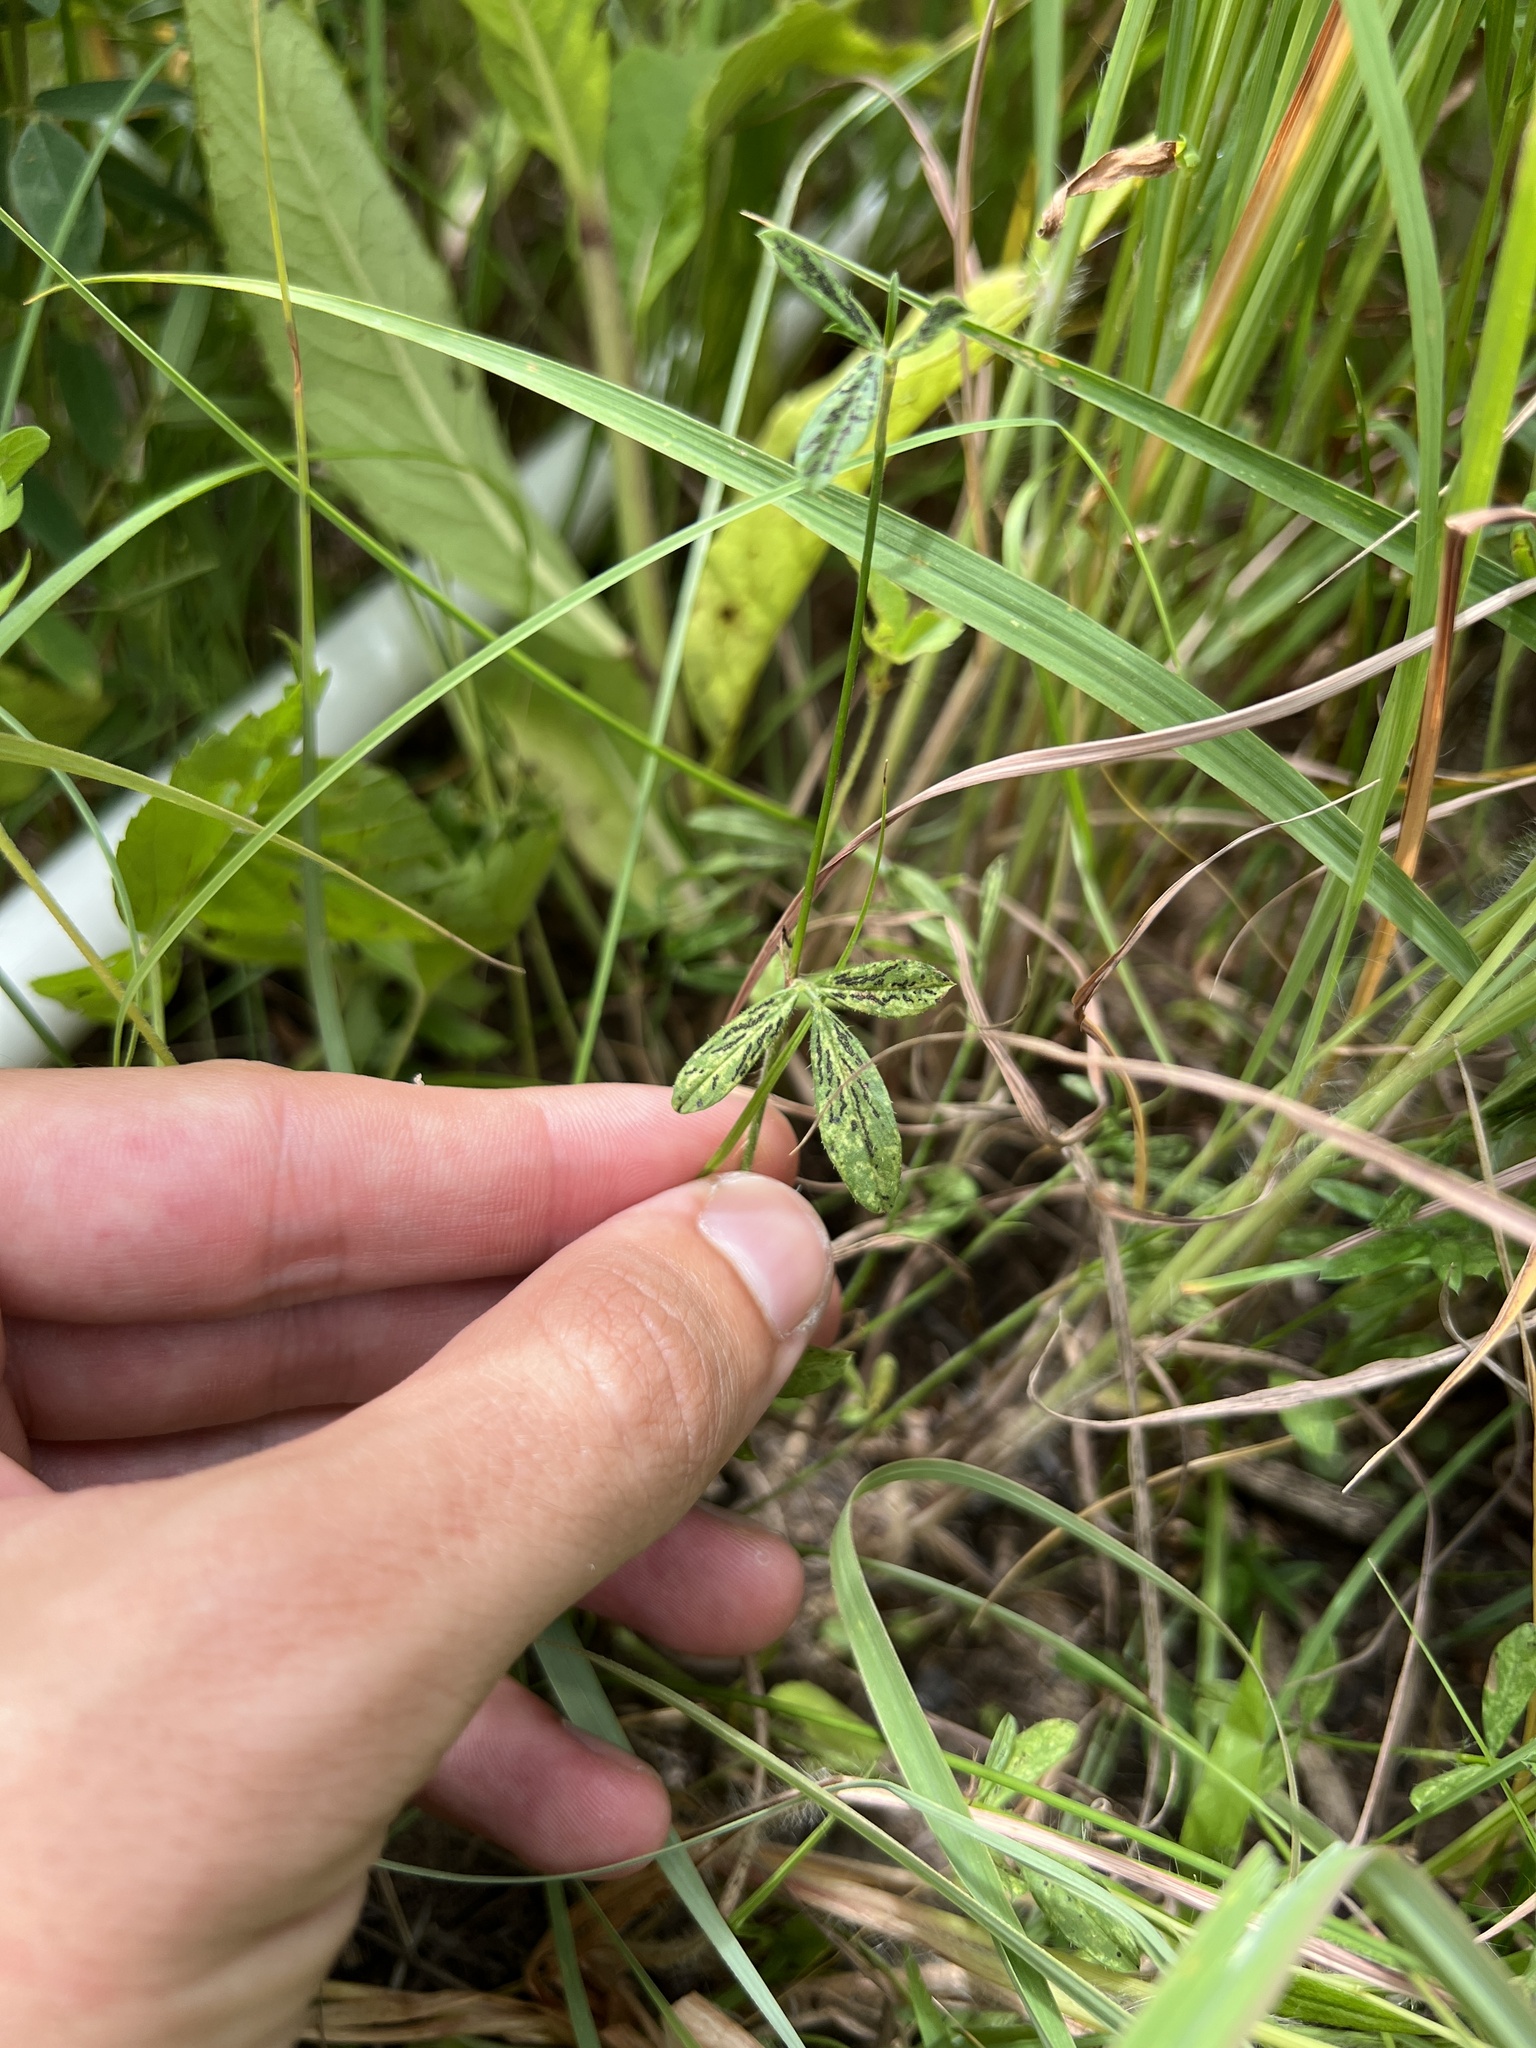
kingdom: Plantae
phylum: Tracheophyta
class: Magnoliopsida
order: Fabales
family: Fabaceae
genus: Stylosanthes
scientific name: Stylosanthes biflora
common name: Two-flower pencil-flower
